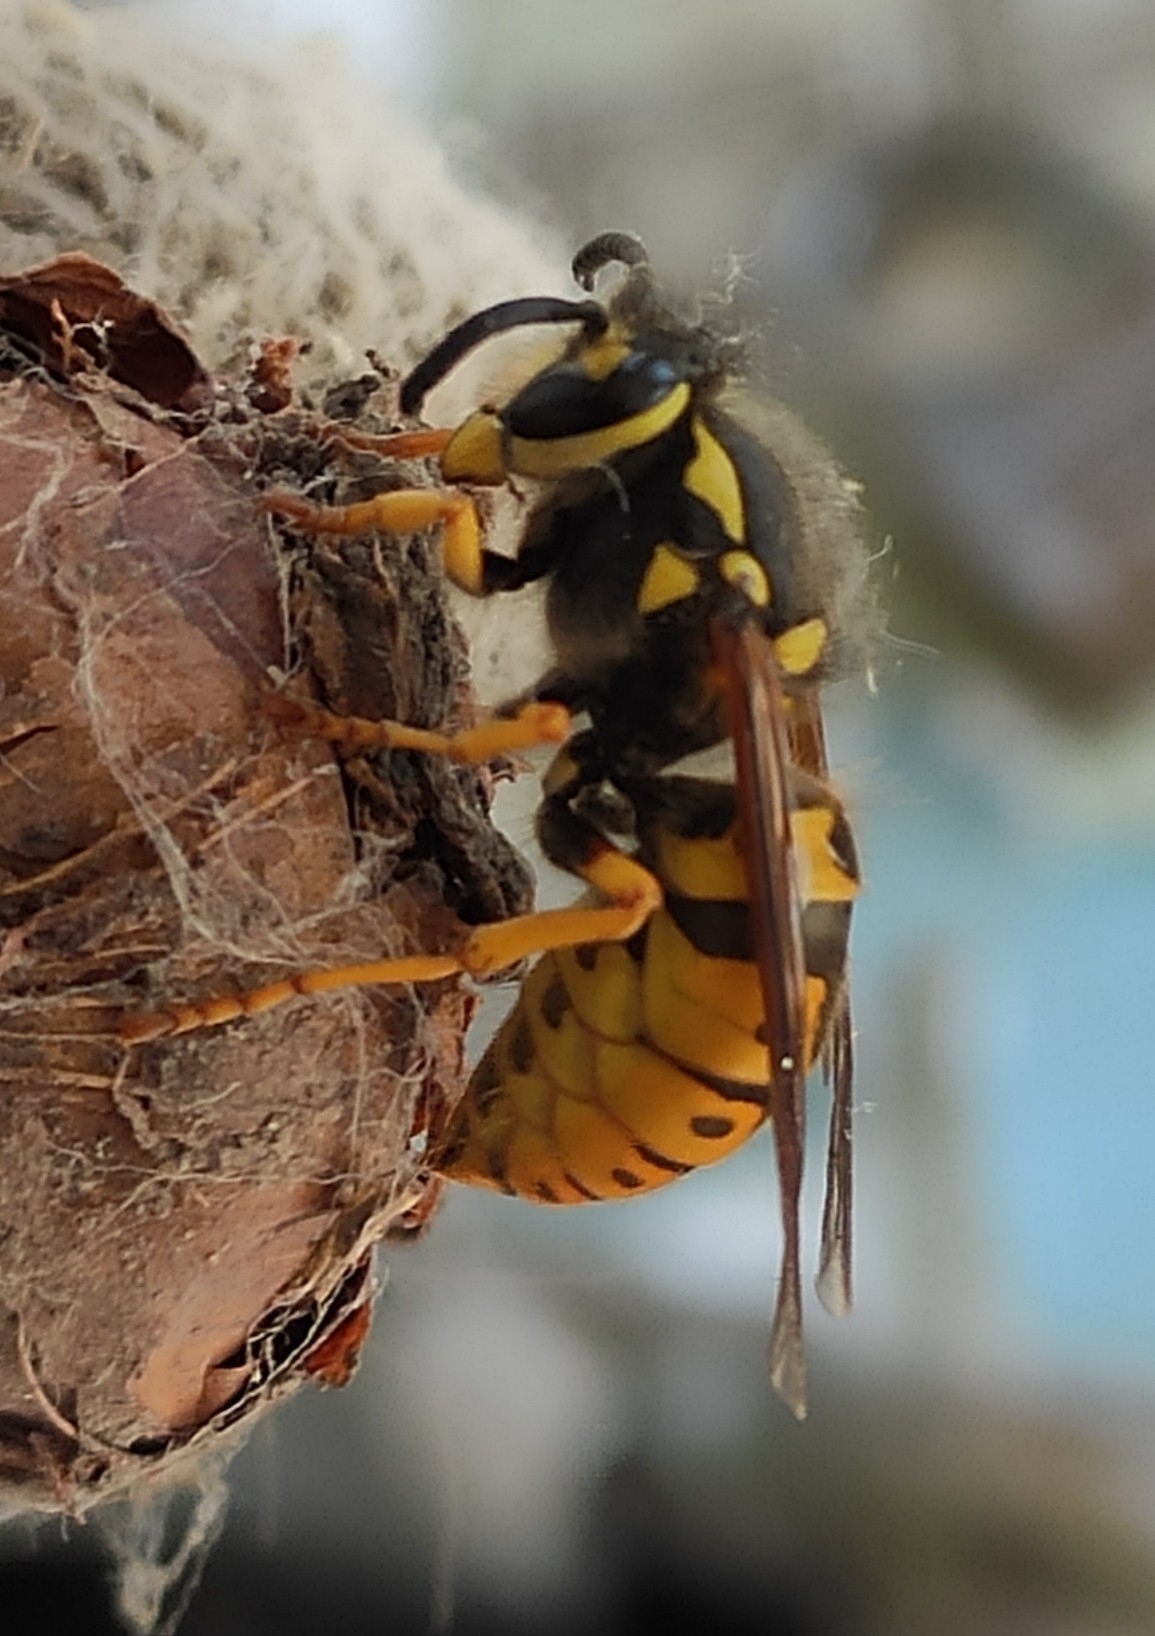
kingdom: Animalia
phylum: Arthropoda
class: Insecta
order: Hymenoptera
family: Vespidae
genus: Vespula
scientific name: Vespula germanica
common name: German wasp
